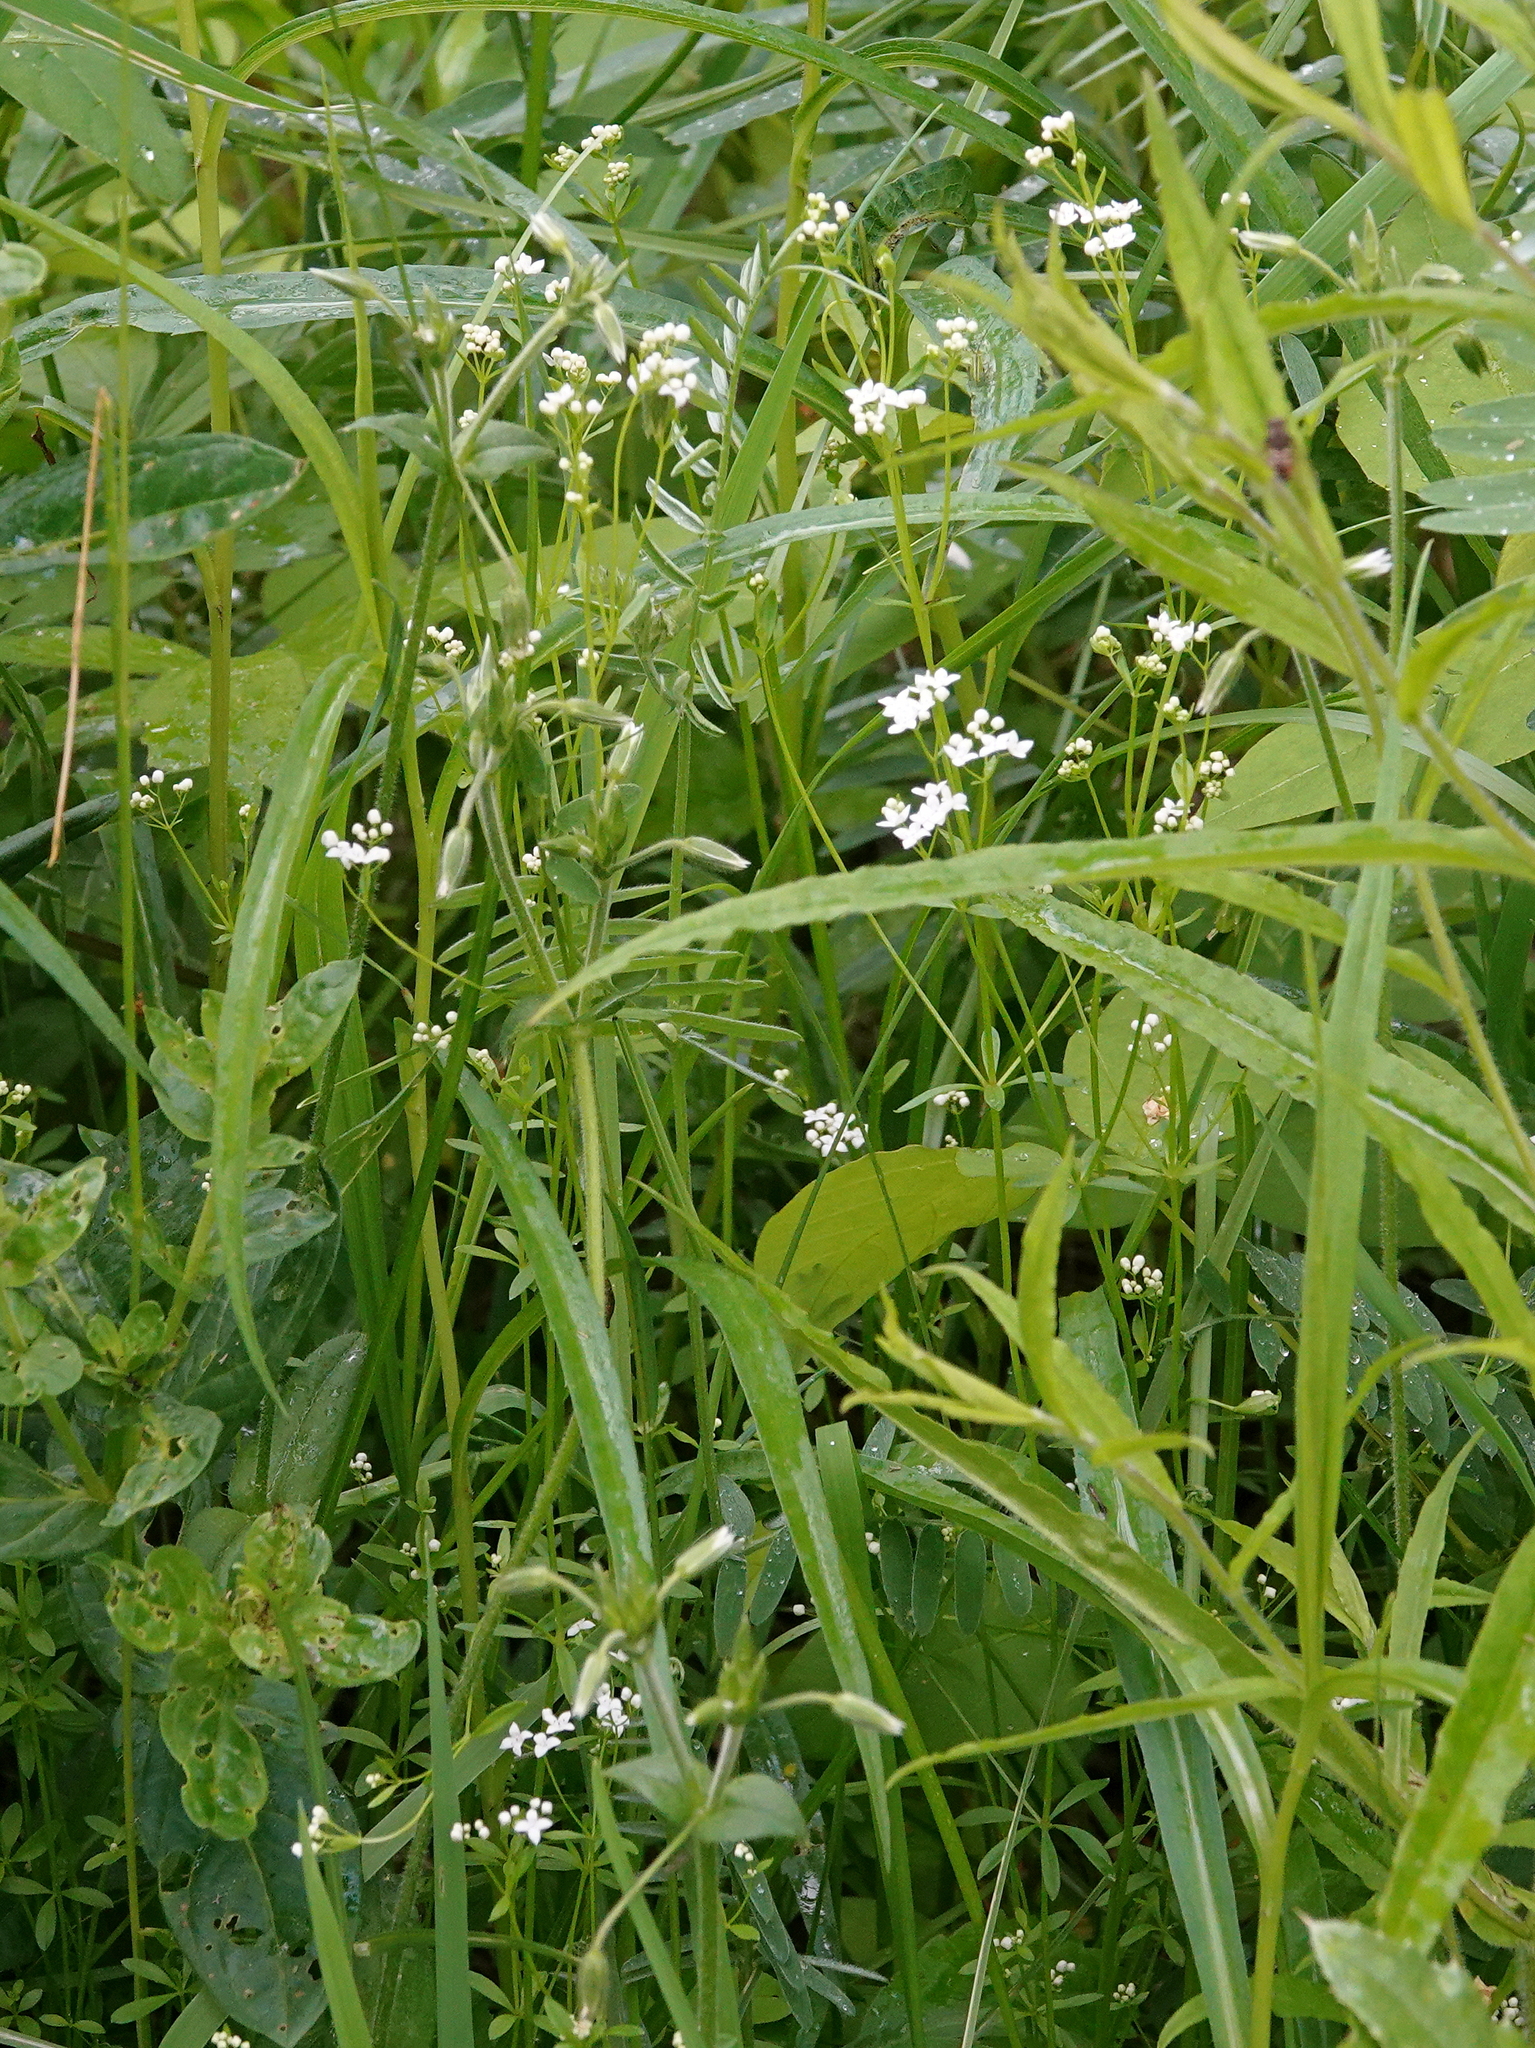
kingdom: Plantae
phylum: Tracheophyta
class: Magnoliopsida
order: Gentianales
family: Rubiaceae
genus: Galium
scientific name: Galium palustre
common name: Common marsh-bedstraw
